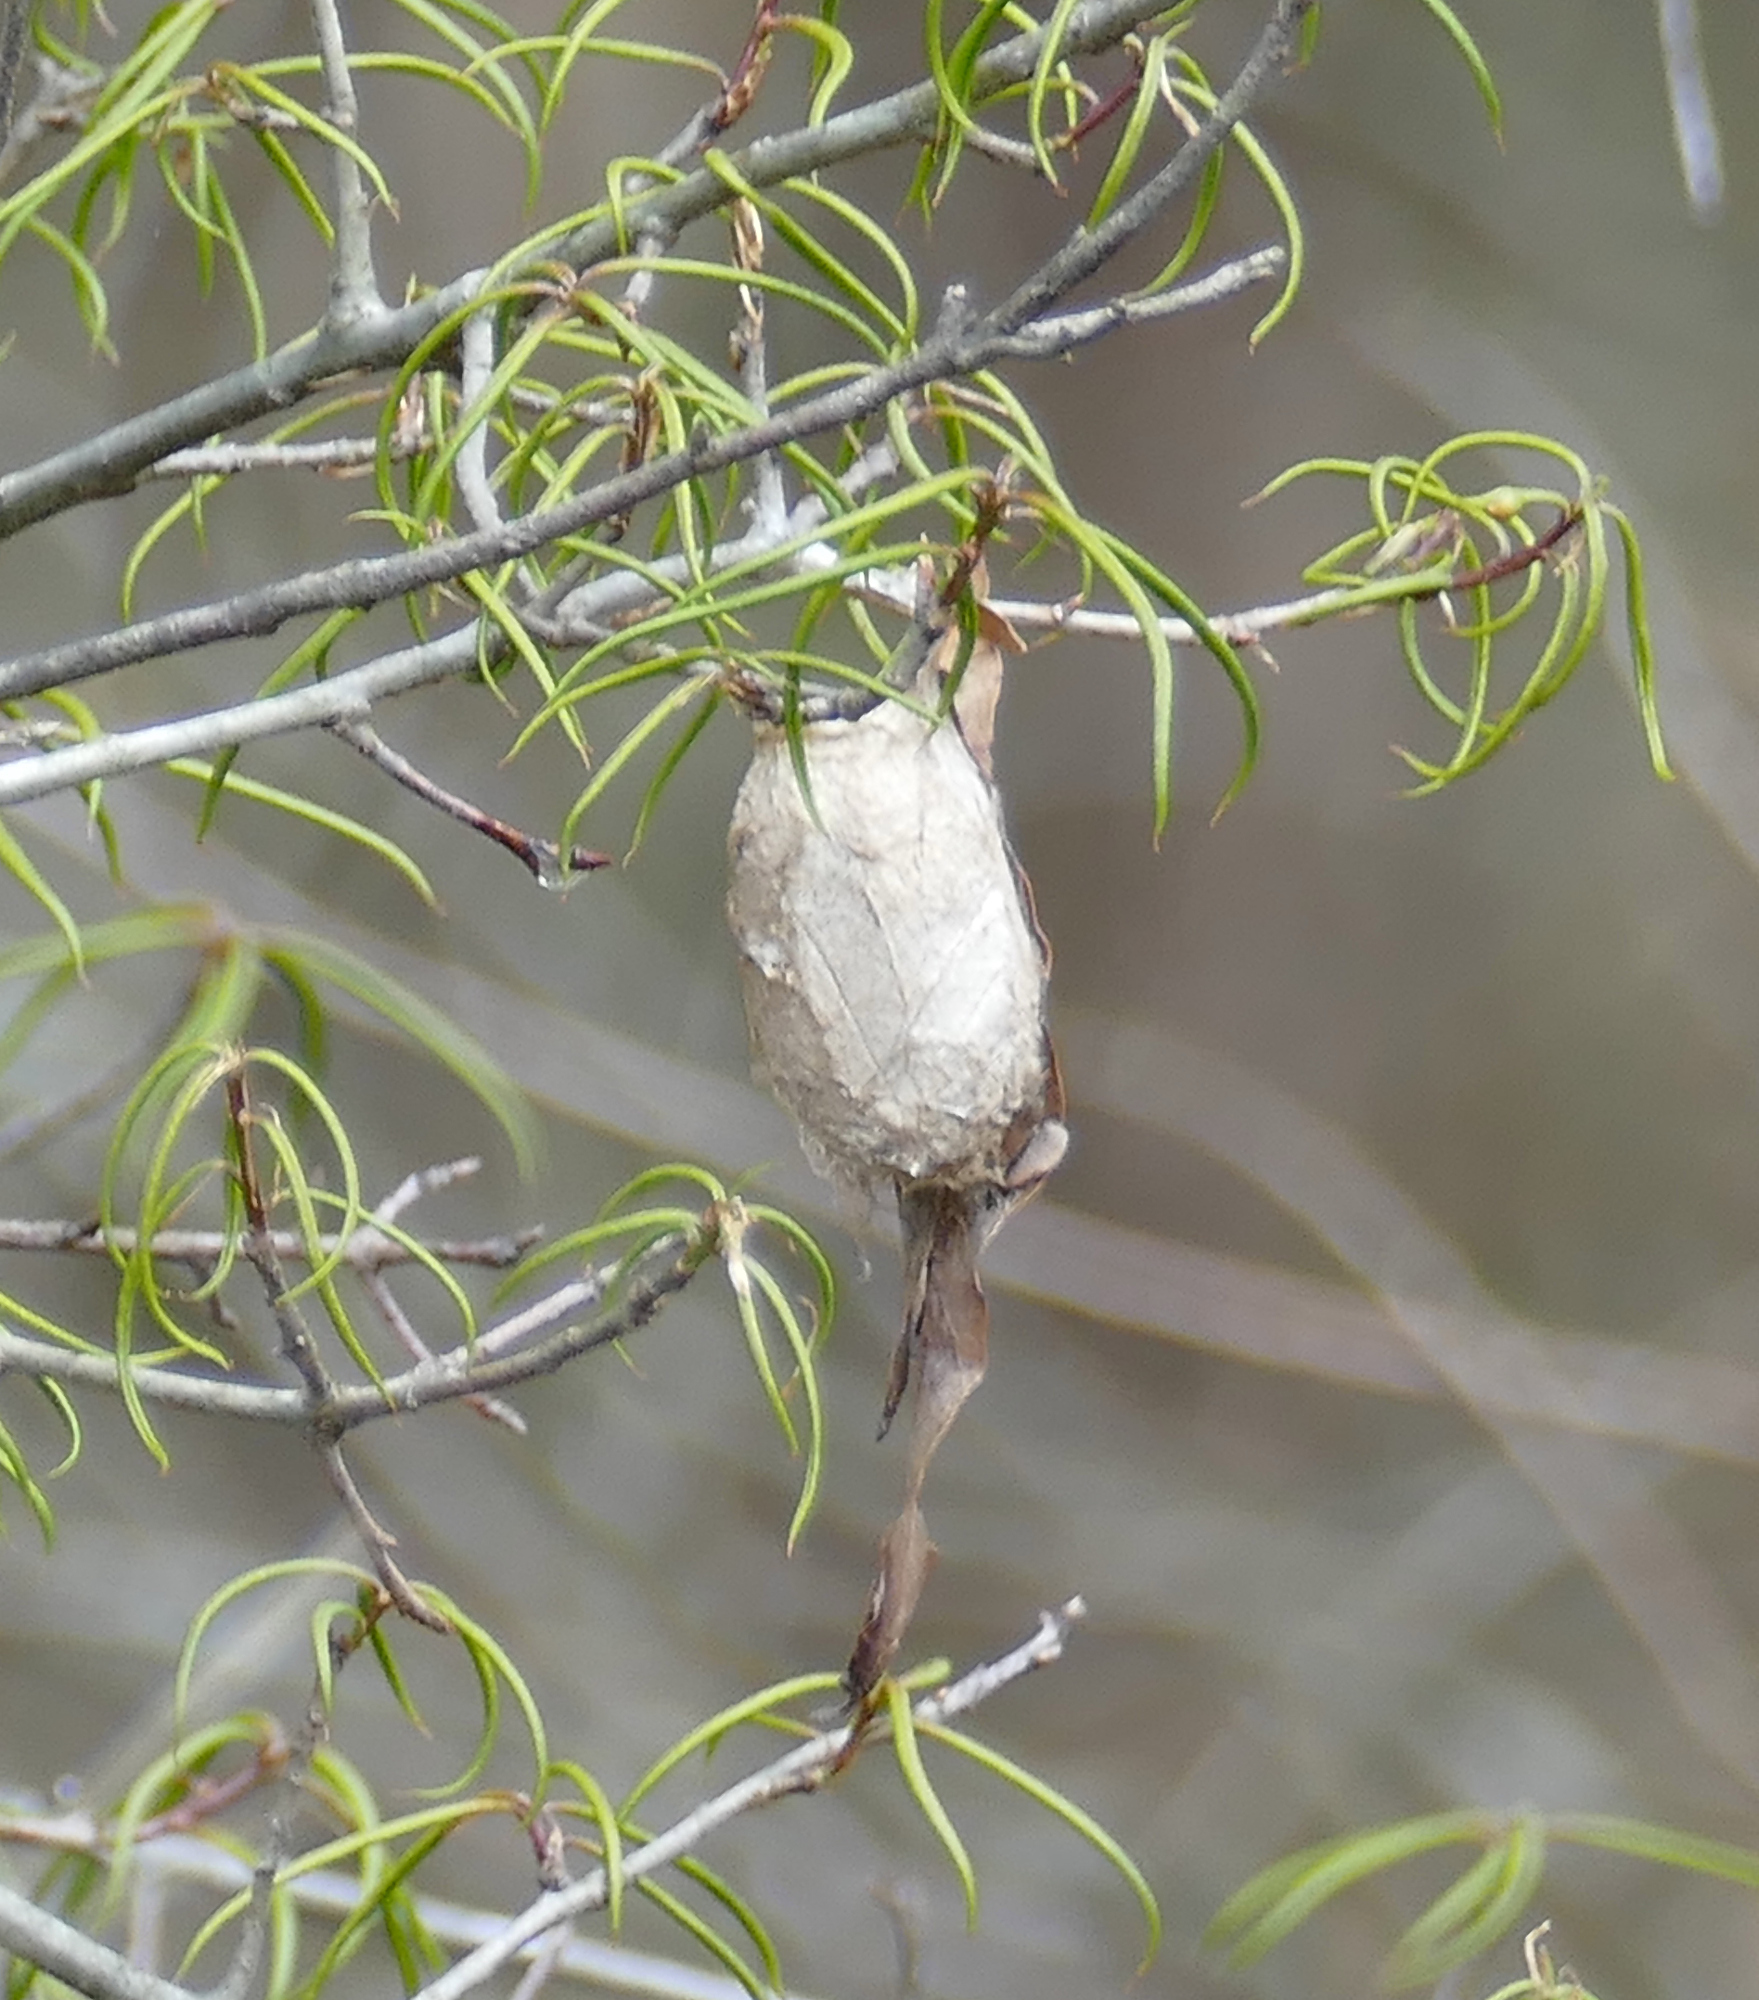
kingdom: Animalia
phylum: Arthropoda
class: Insecta
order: Lepidoptera
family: Saturniidae
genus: Antheraea
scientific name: Antheraea polyphemus
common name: Polyphemus moth
